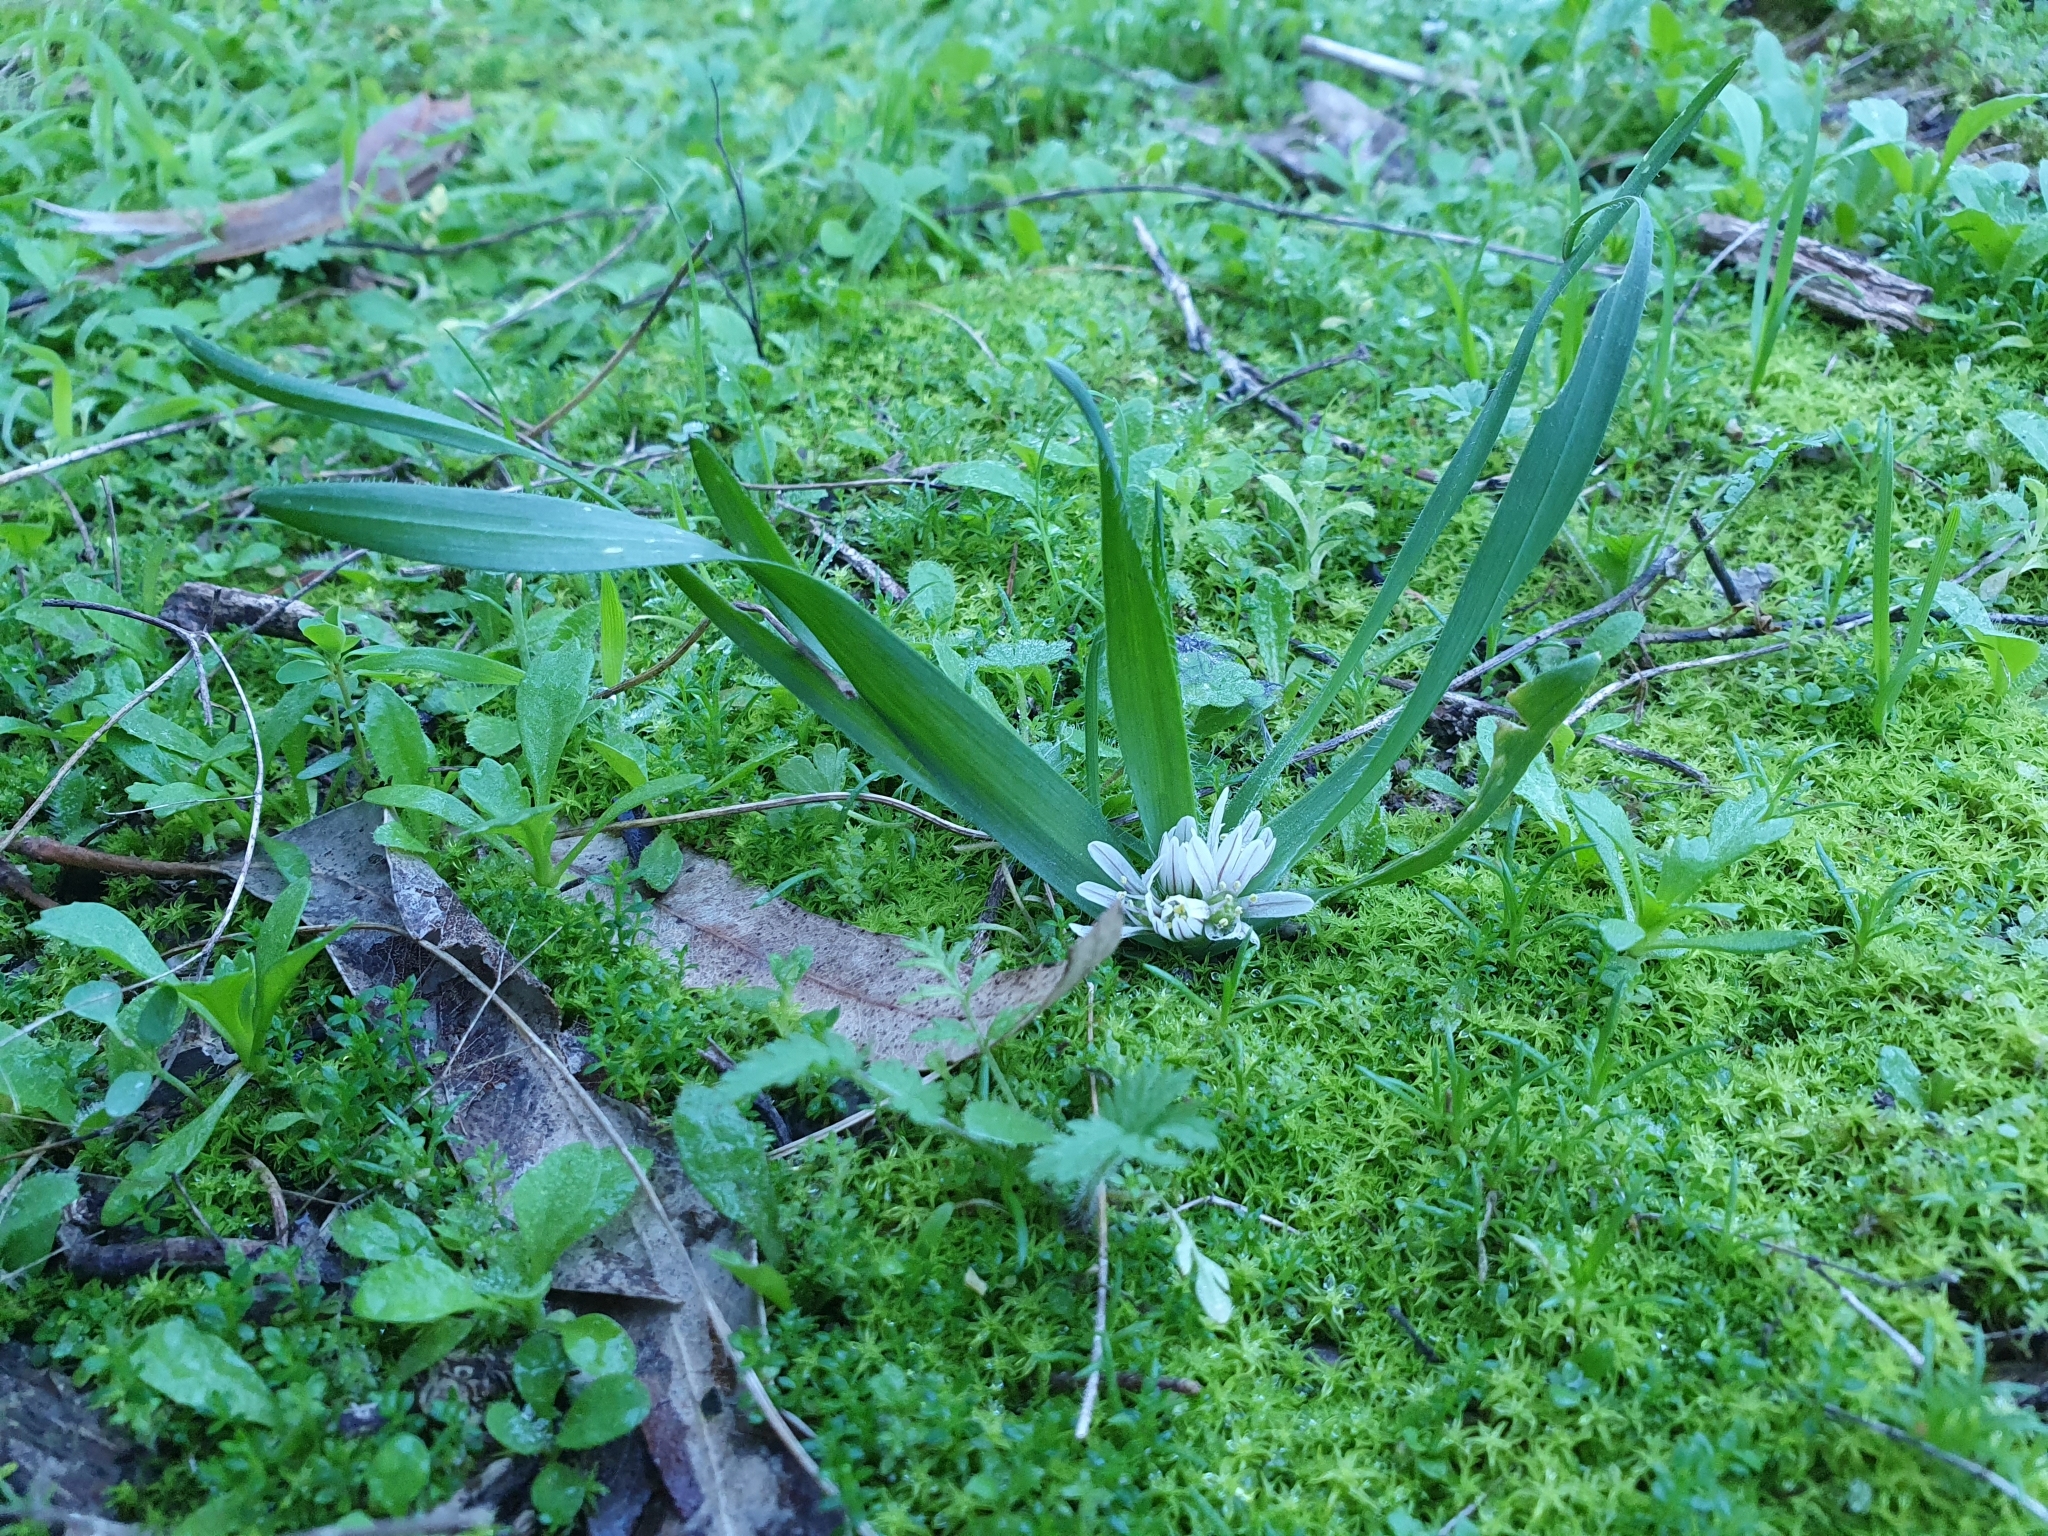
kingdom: Plantae
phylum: Tracheophyta
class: Liliopsida
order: Asparagales
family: Amaryllidaceae
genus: Allium
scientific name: Allium chamaemoly
